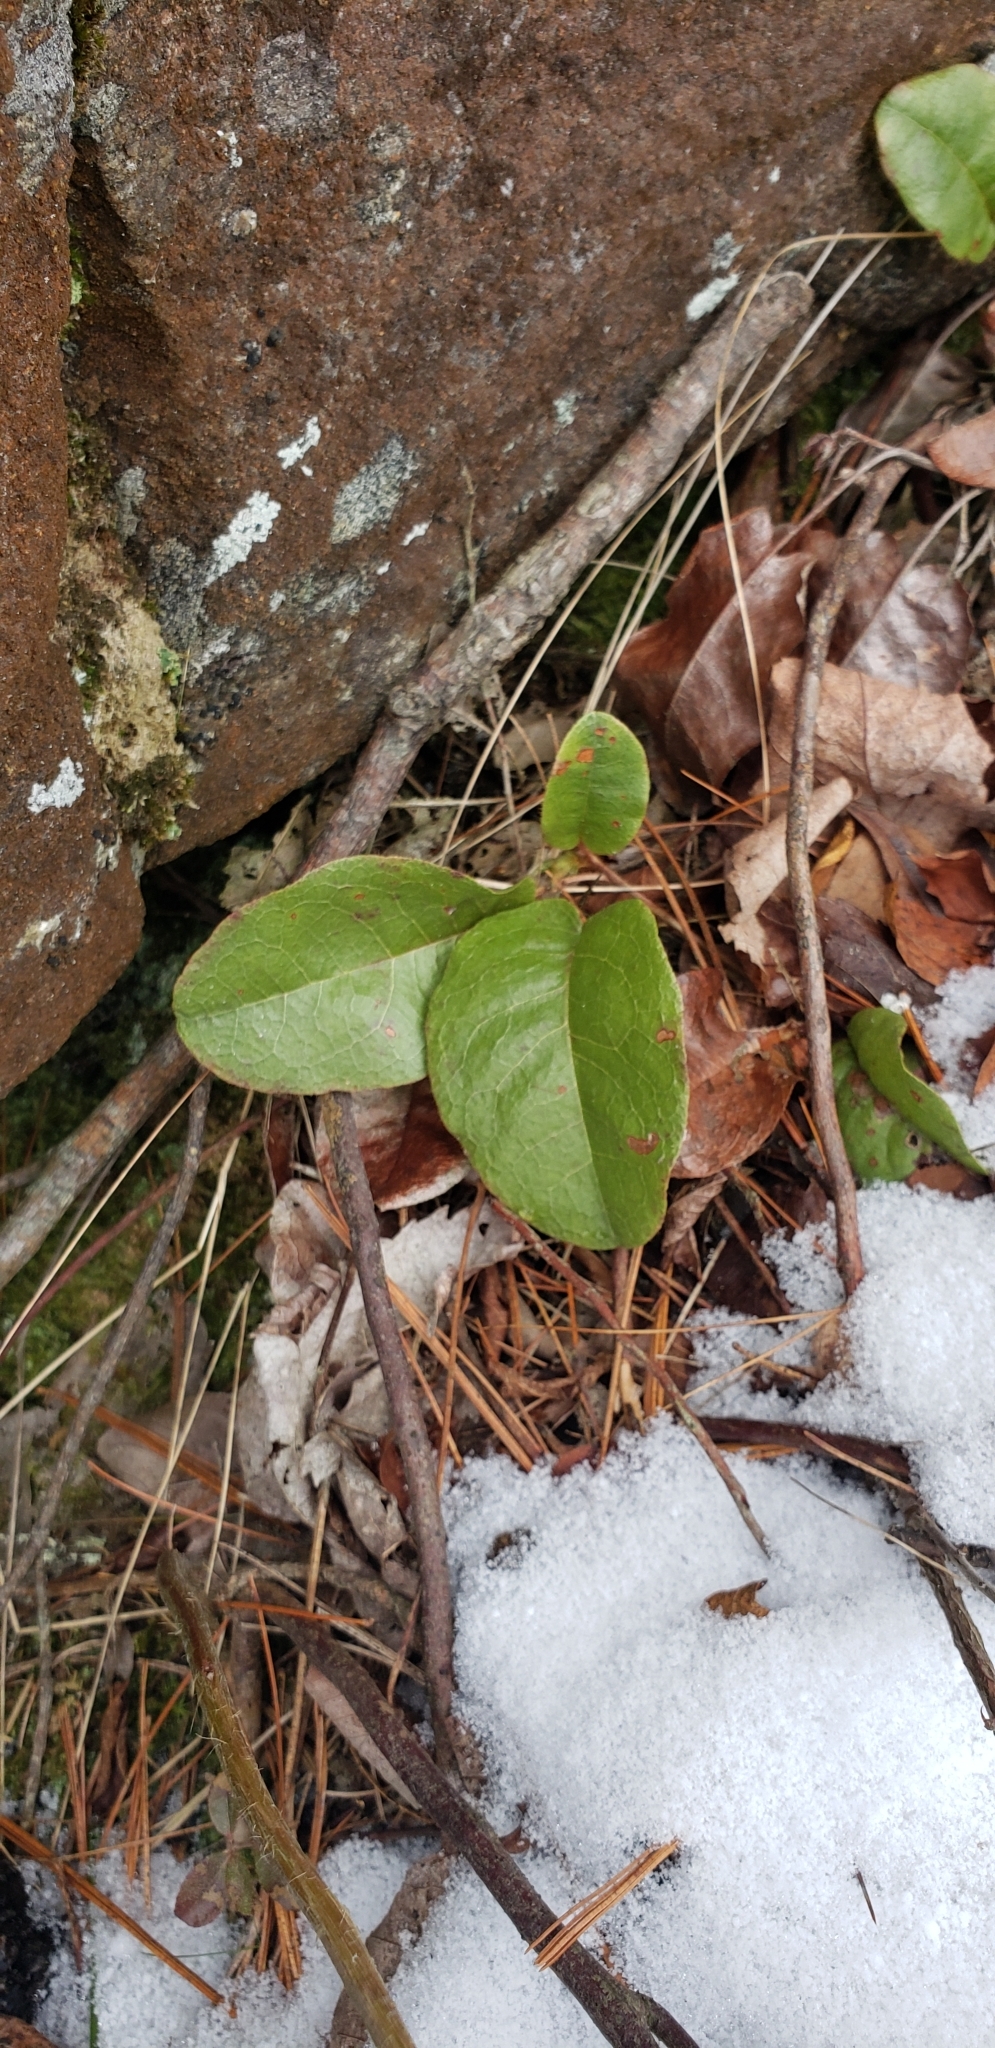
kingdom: Plantae
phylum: Tracheophyta
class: Magnoliopsida
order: Ericales
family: Ericaceae
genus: Epigaea
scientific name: Epigaea repens
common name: Gravelroot
